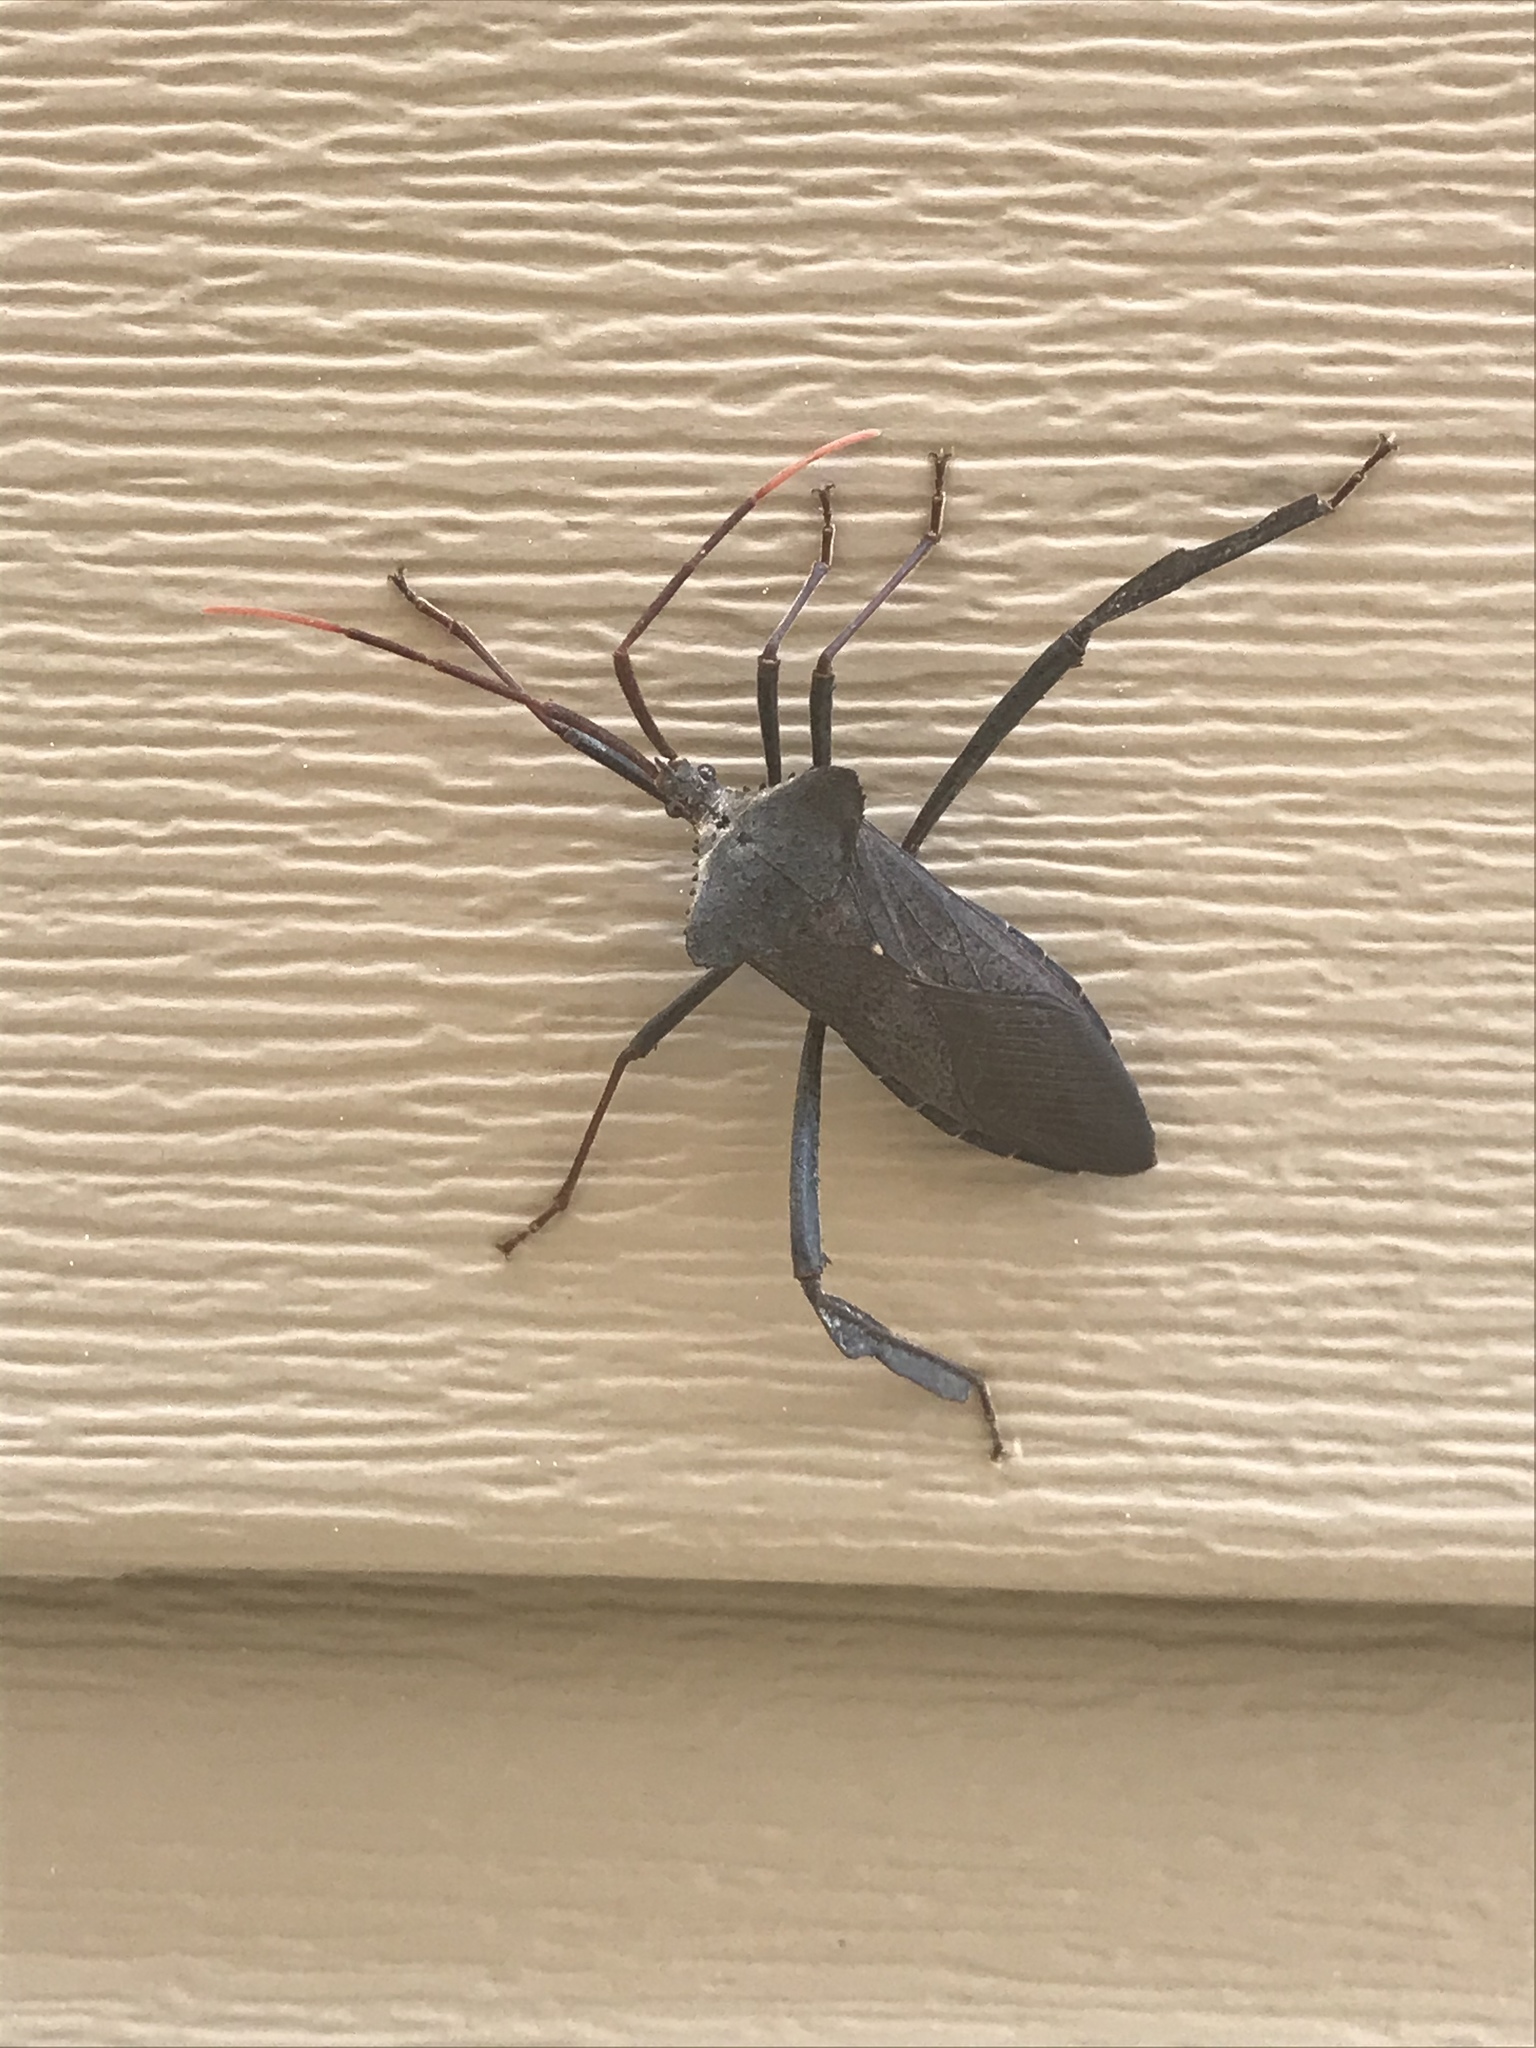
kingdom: Animalia
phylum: Arthropoda
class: Insecta
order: Hemiptera
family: Coreidae
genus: Acanthocephala
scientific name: Acanthocephala declivis
